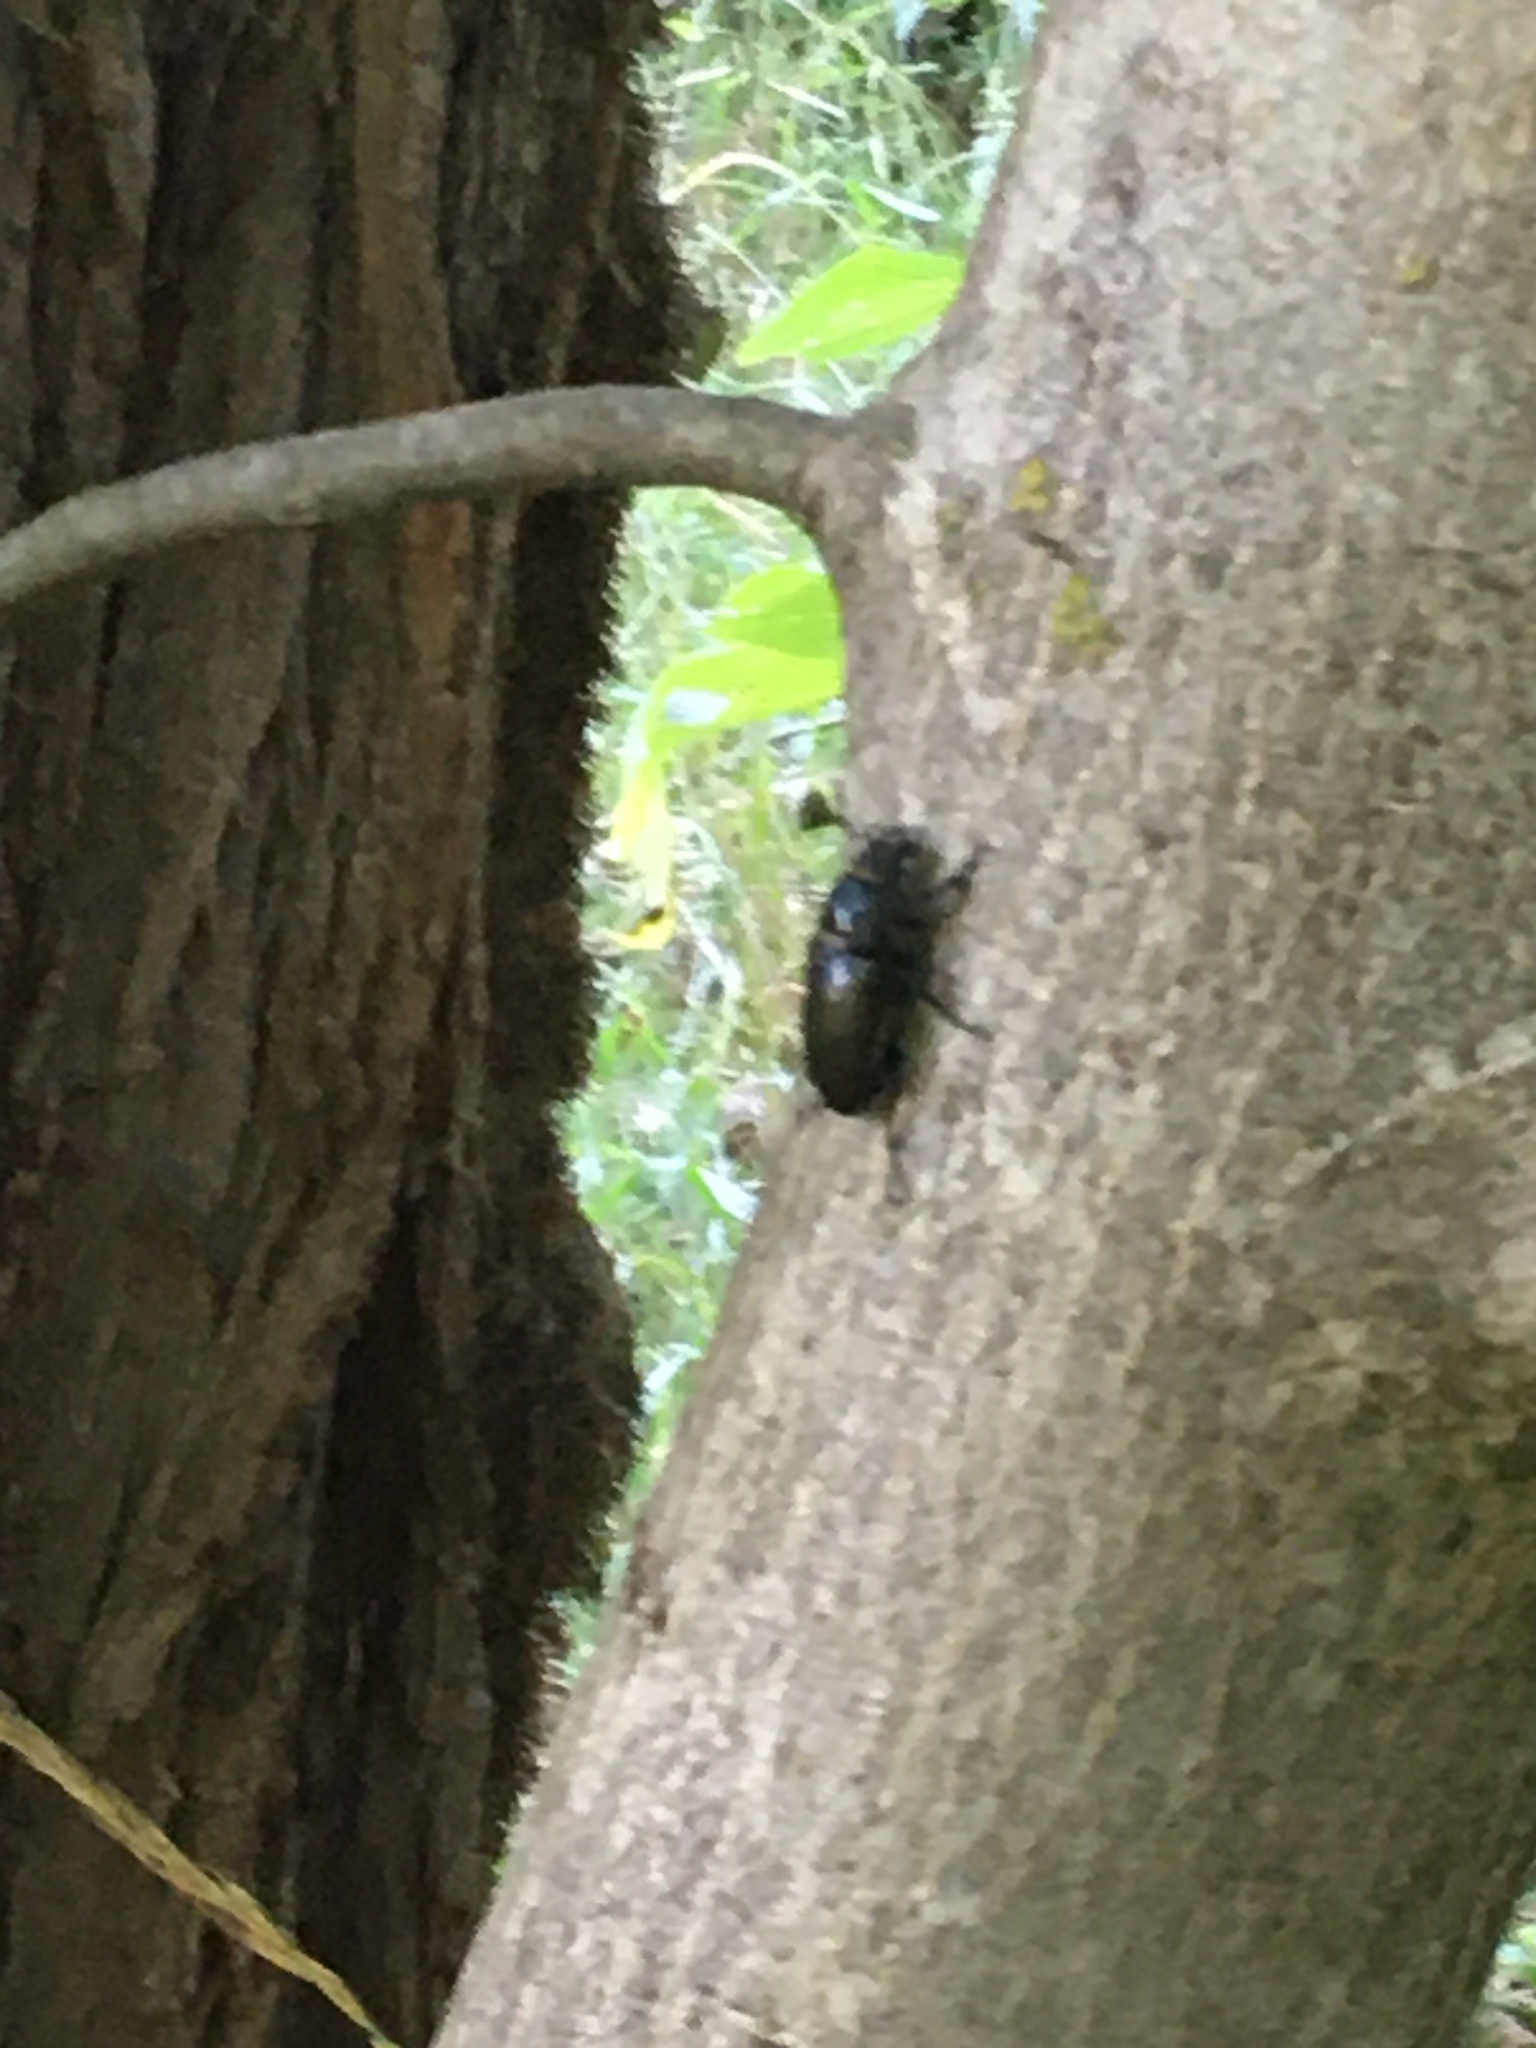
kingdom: Animalia
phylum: Arthropoda
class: Insecta
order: Coleoptera
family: Lucanidae
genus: Lucanus
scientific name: Lucanus cervus
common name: Stag beetle
